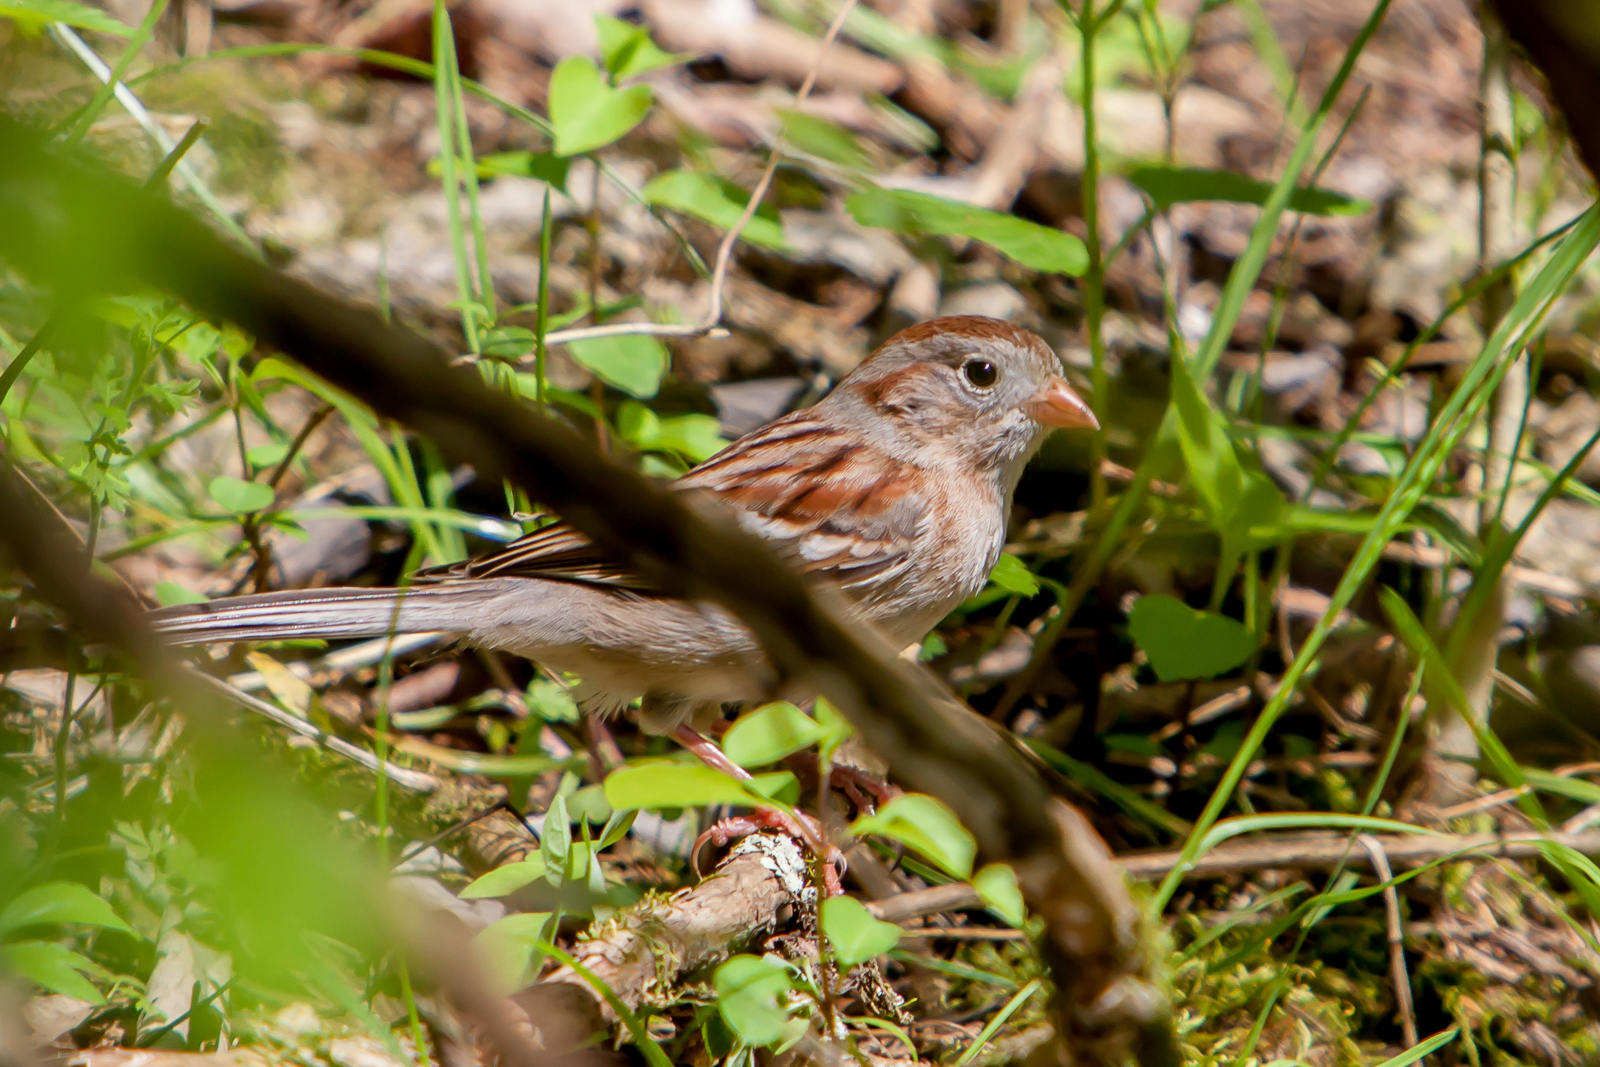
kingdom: Animalia
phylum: Chordata
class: Aves
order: Passeriformes
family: Passerellidae
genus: Spizella
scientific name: Spizella pusilla
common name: Field sparrow
